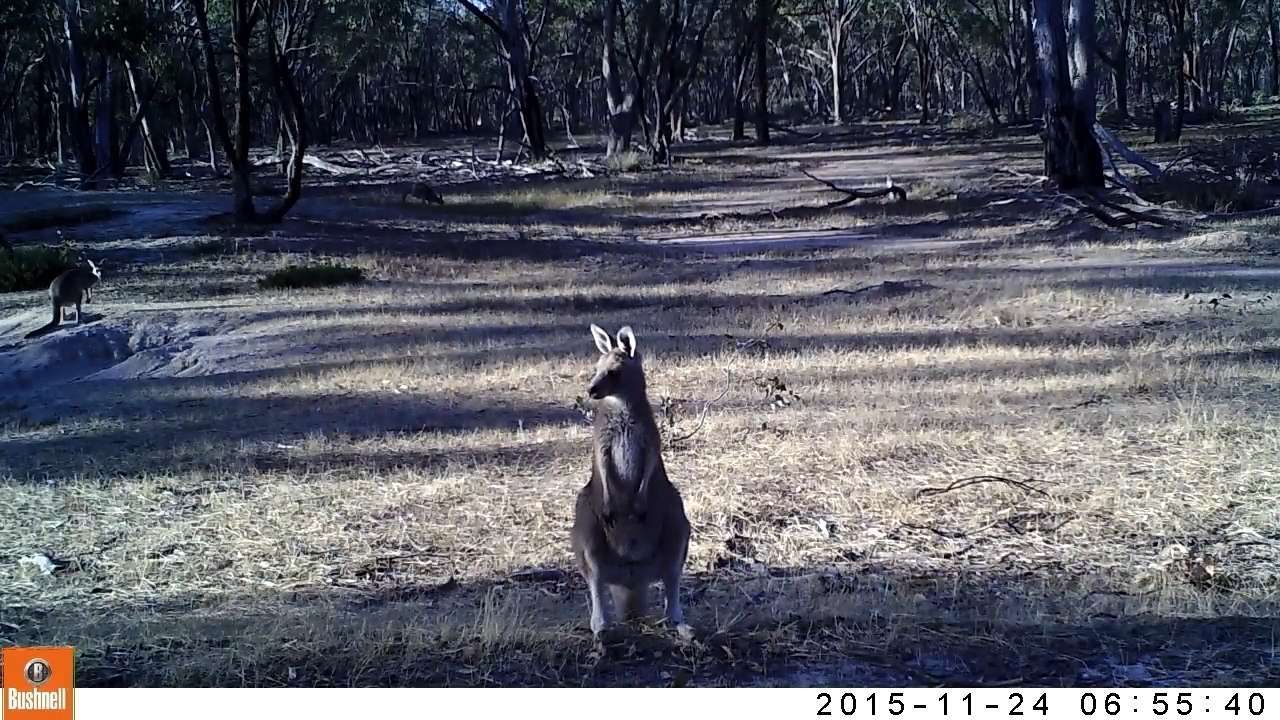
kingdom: Animalia
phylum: Chordata
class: Mammalia
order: Diprotodontia
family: Macropodidae
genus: Macropus
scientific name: Macropus giganteus
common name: Eastern grey kangaroo
